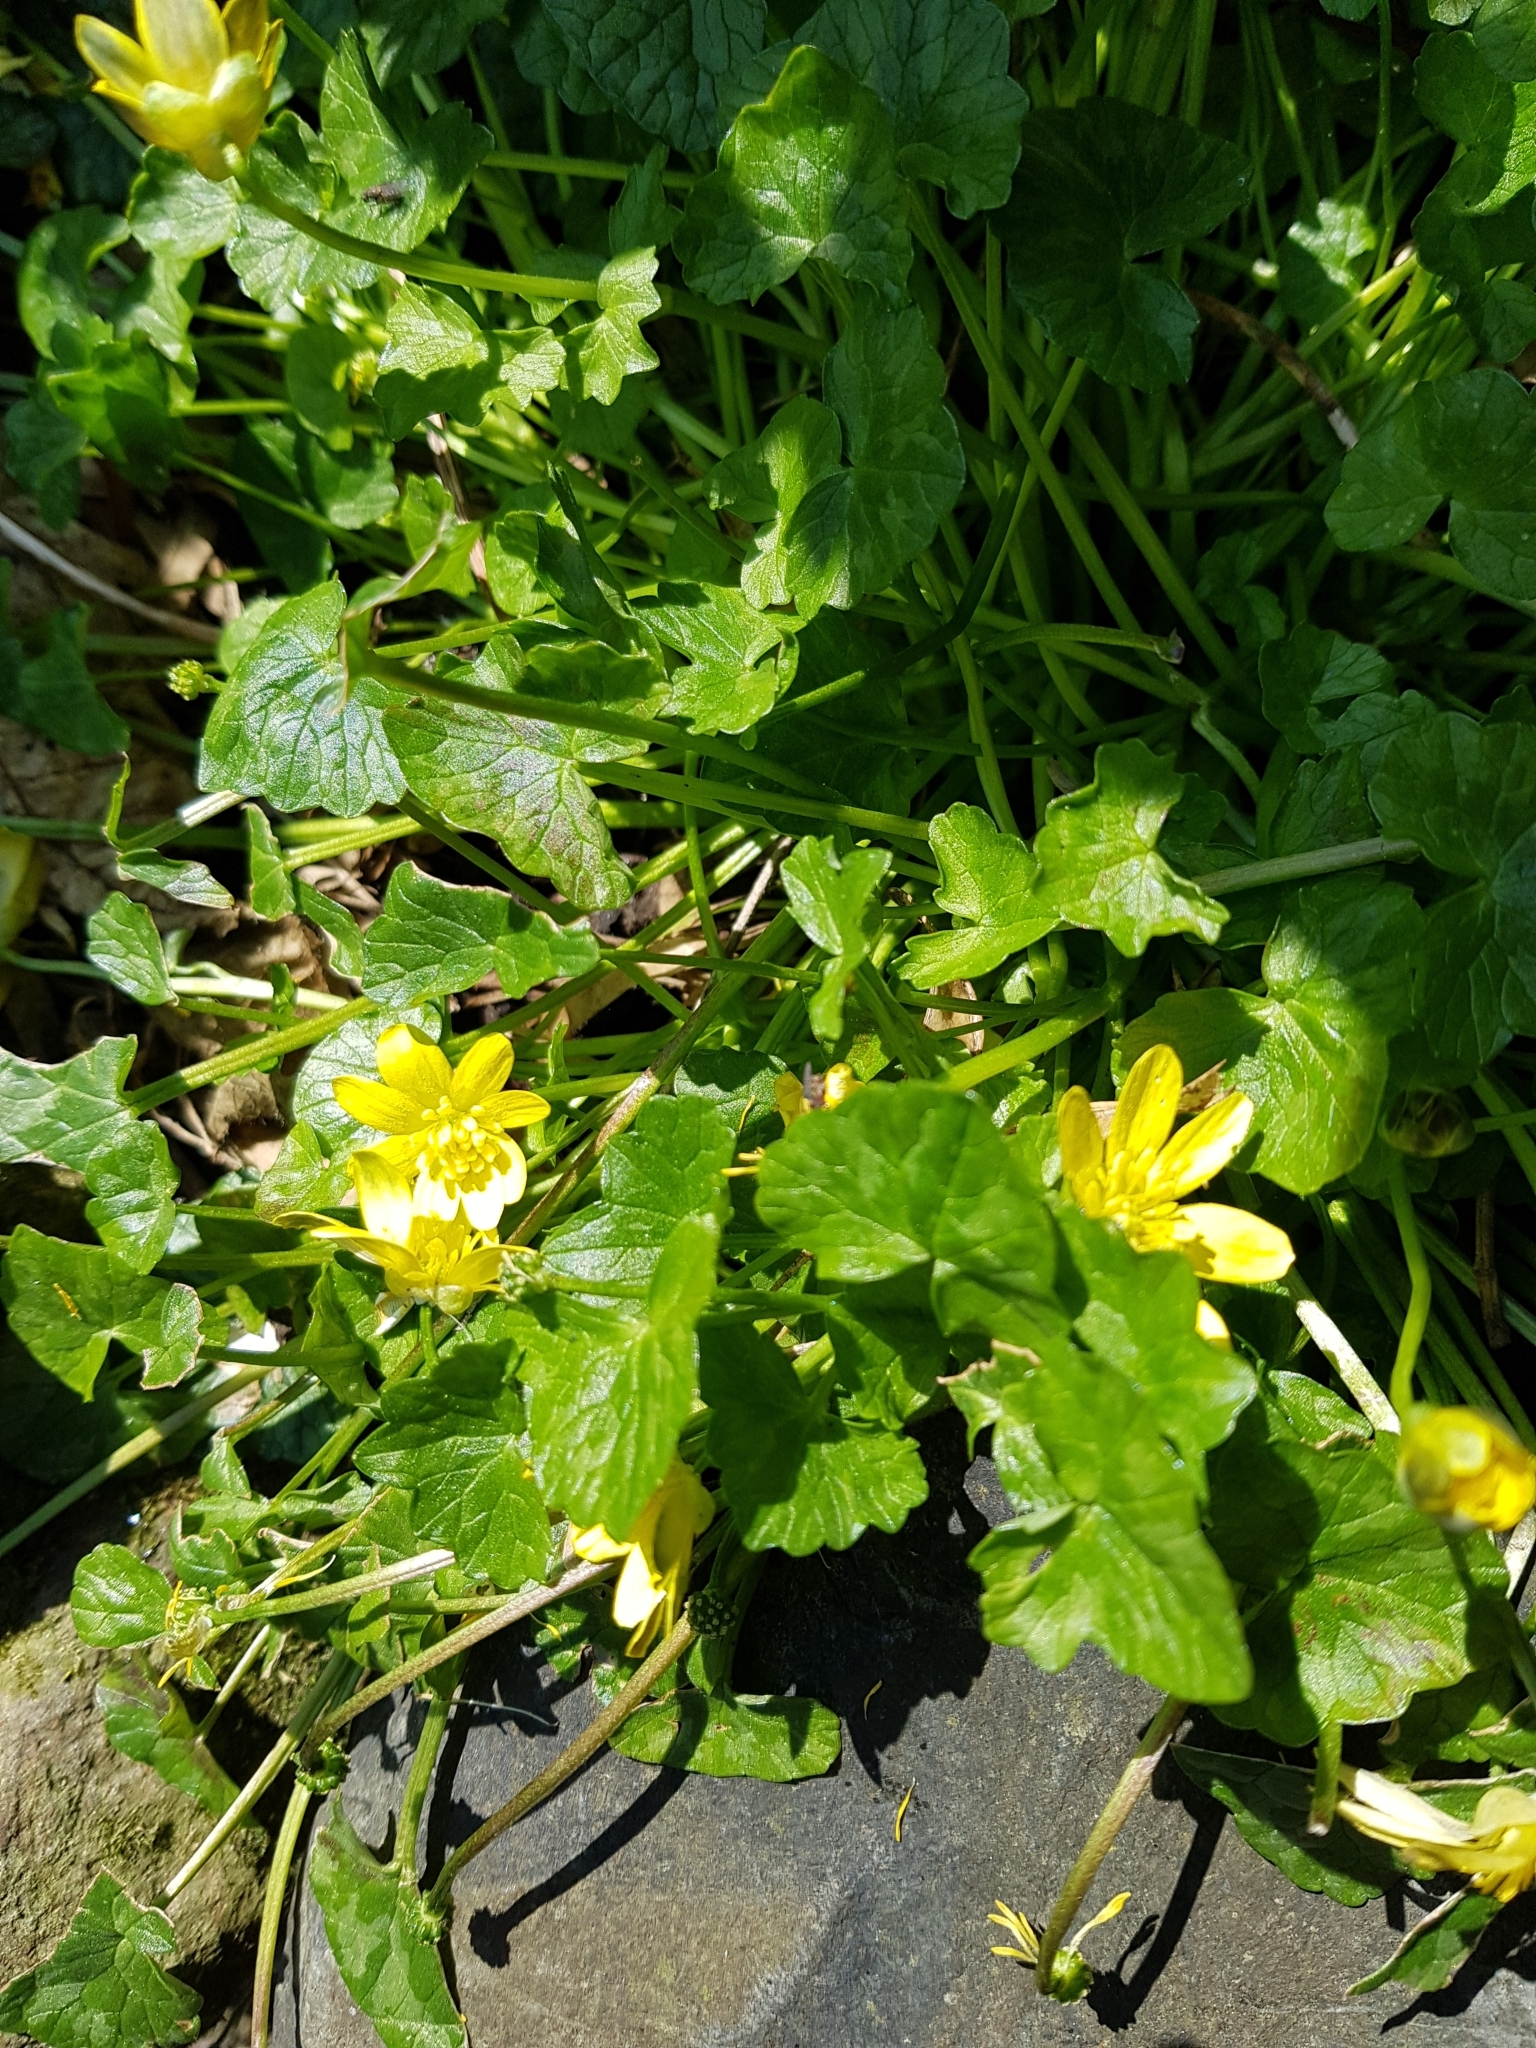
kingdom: Plantae
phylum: Tracheophyta
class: Magnoliopsida
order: Ranunculales
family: Ranunculaceae
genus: Ficaria
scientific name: Ficaria verna
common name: Lesser celandine
